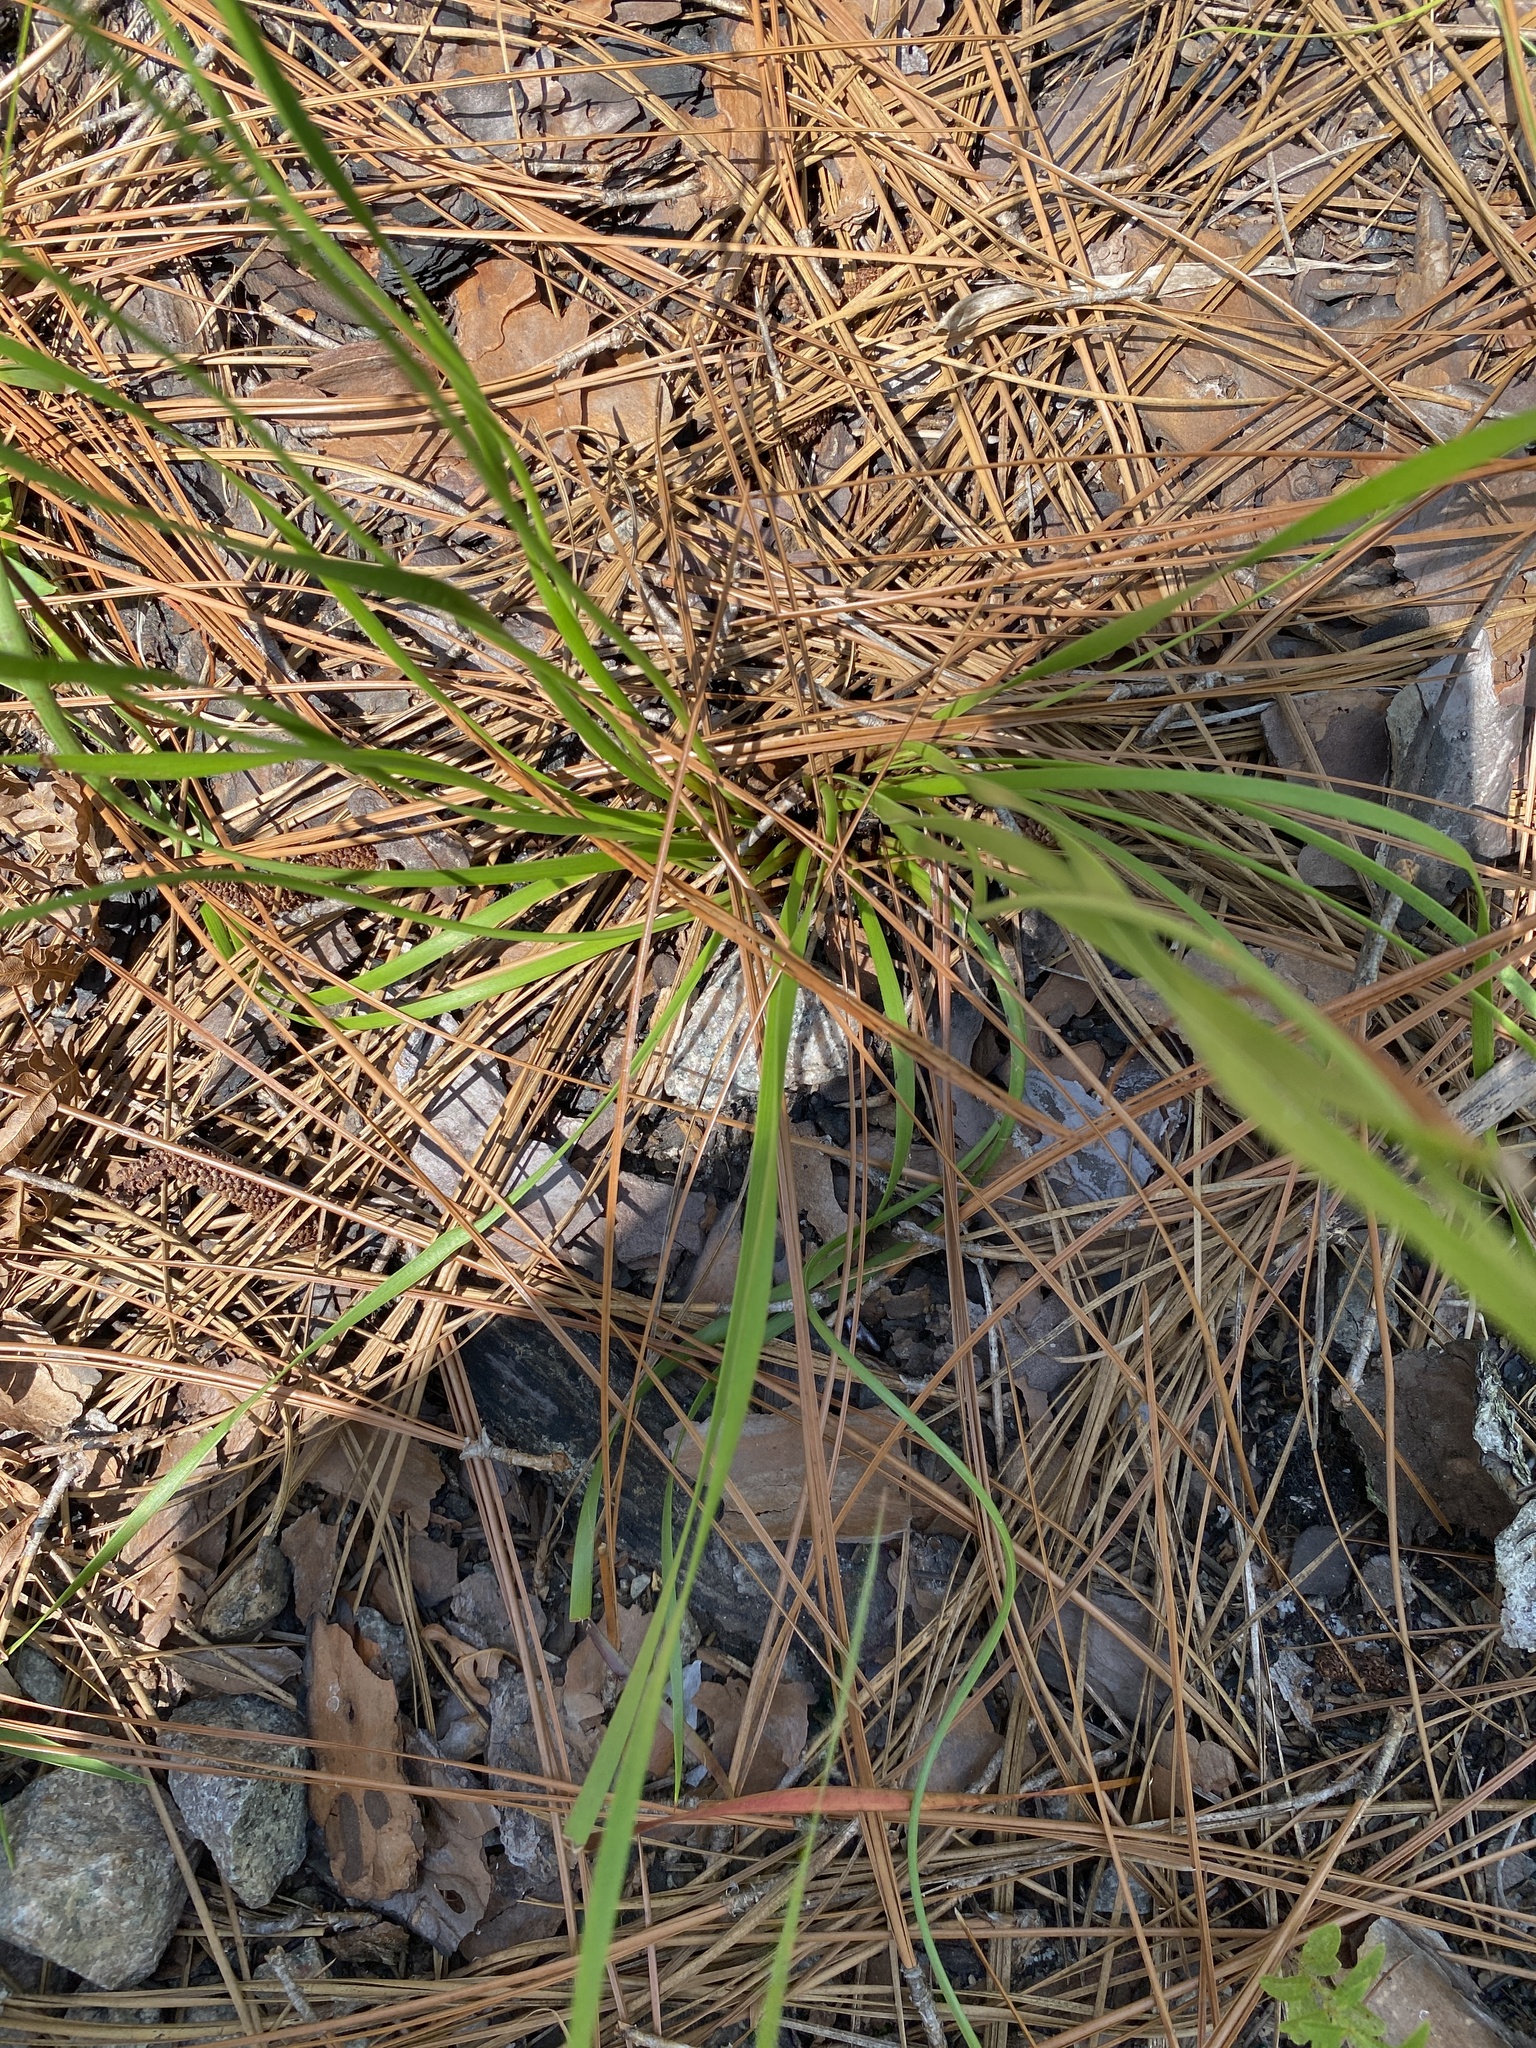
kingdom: Plantae
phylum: Tracheophyta
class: Liliopsida
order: Poales
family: Xyridaceae
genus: Xyris
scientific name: Xyris caroliniana
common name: Carolina yellow-eyed-grass
